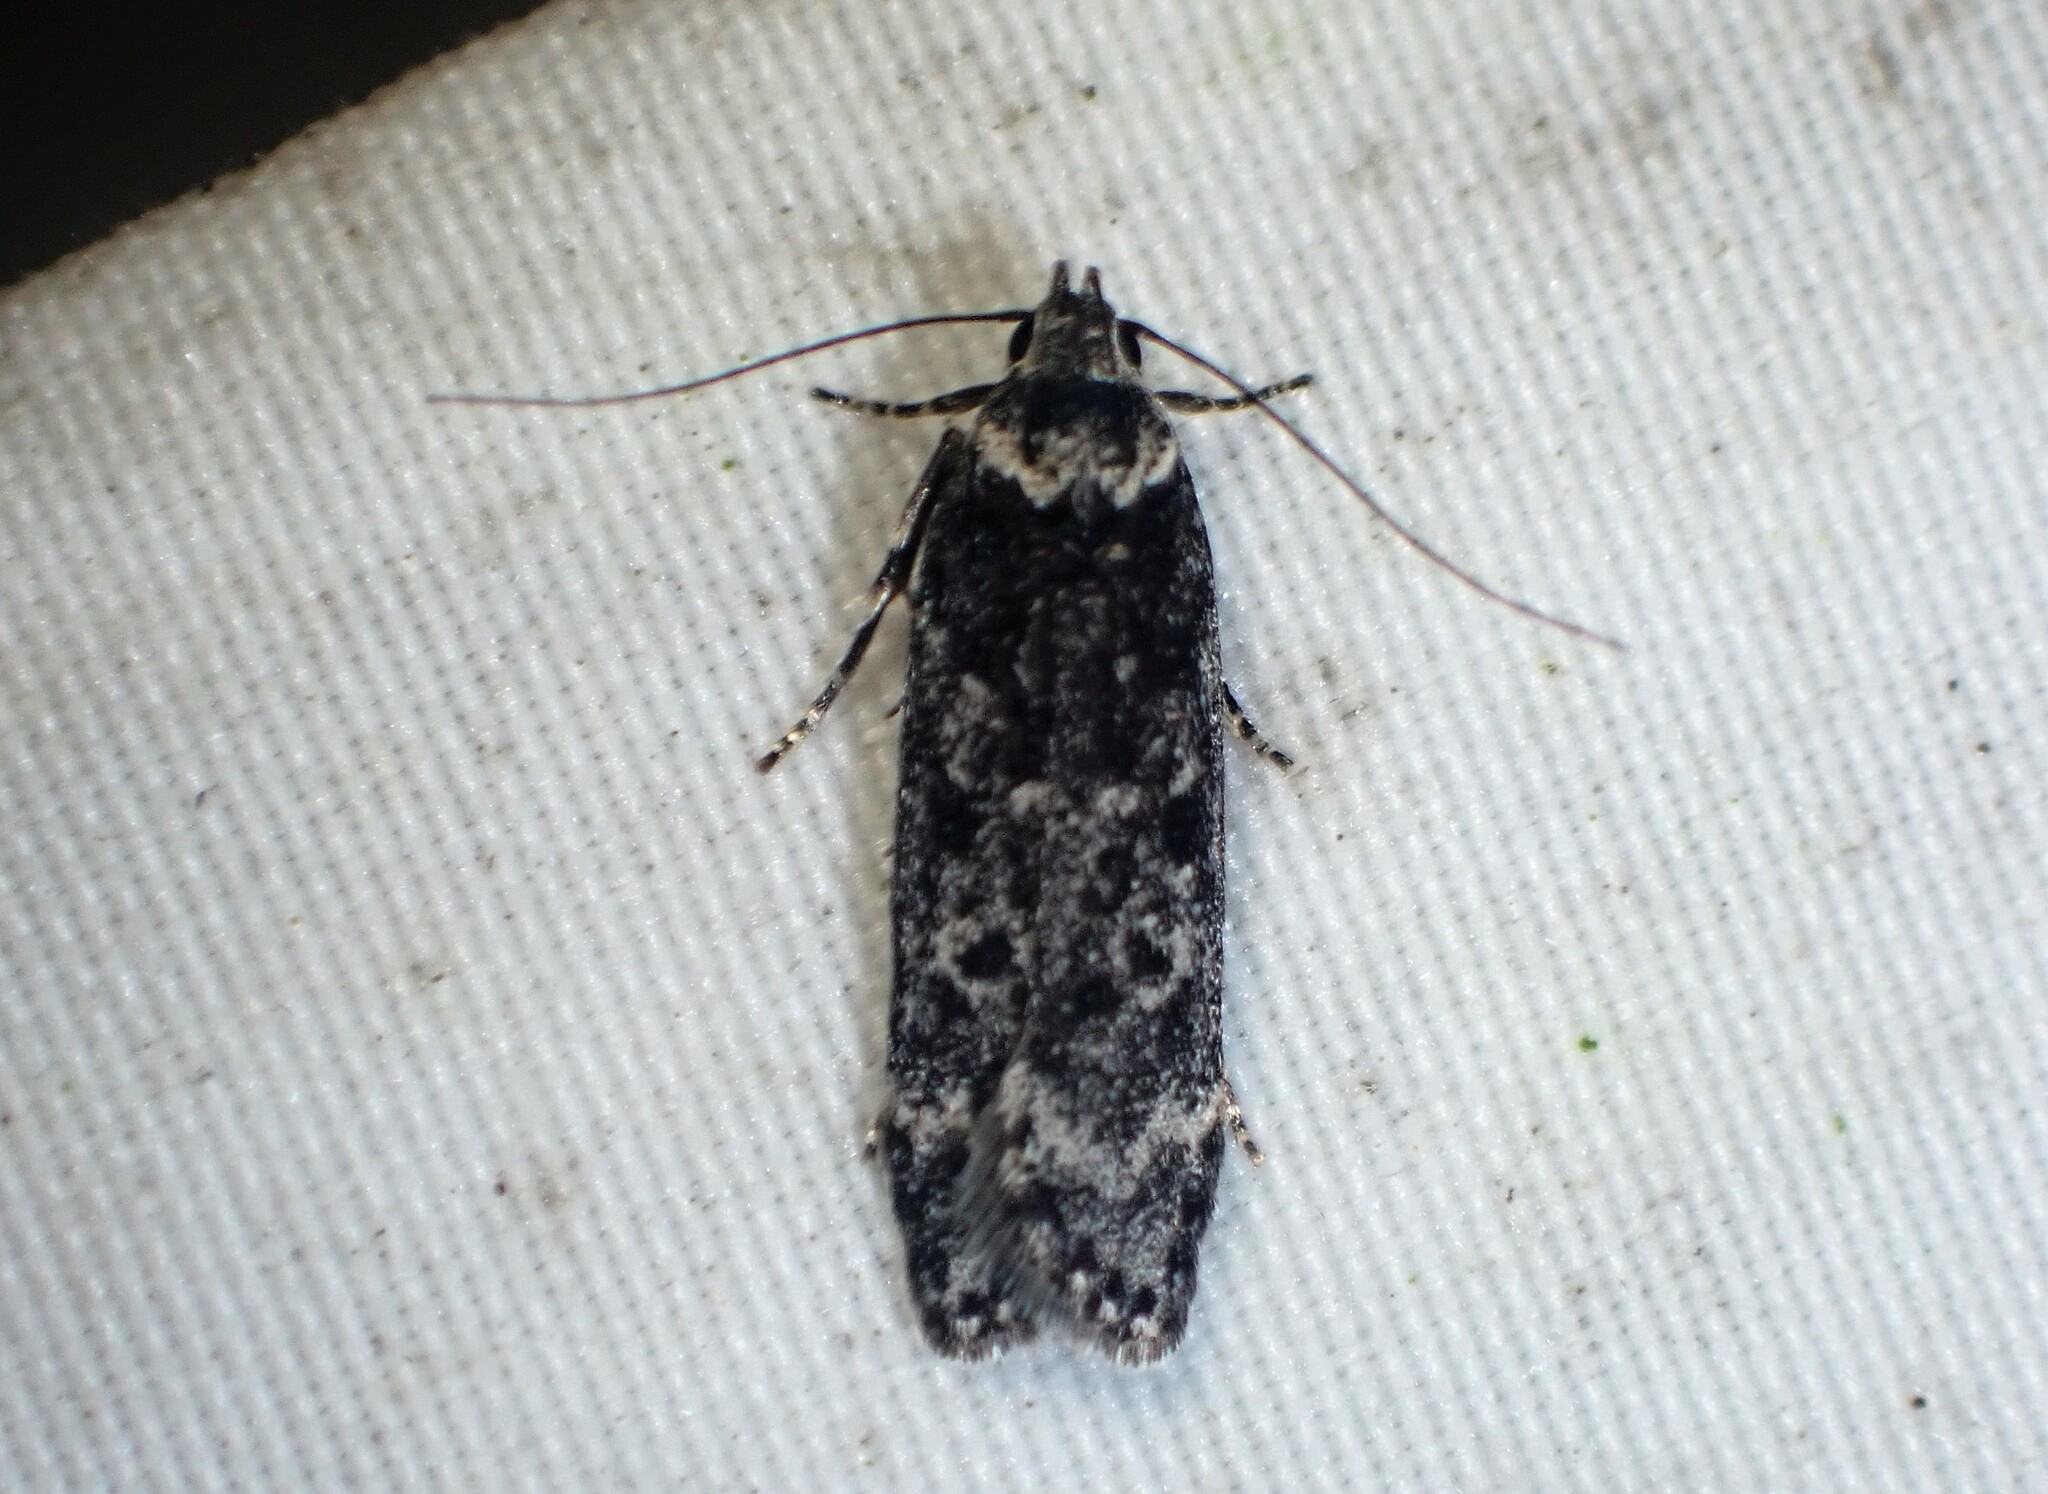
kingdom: Animalia
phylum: Arthropoda
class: Insecta
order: Lepidoptera
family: Gelechiidae
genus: Anacampsis
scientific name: Anacampsis niveopulvella
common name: Pale-headed aspen leafroller moth
